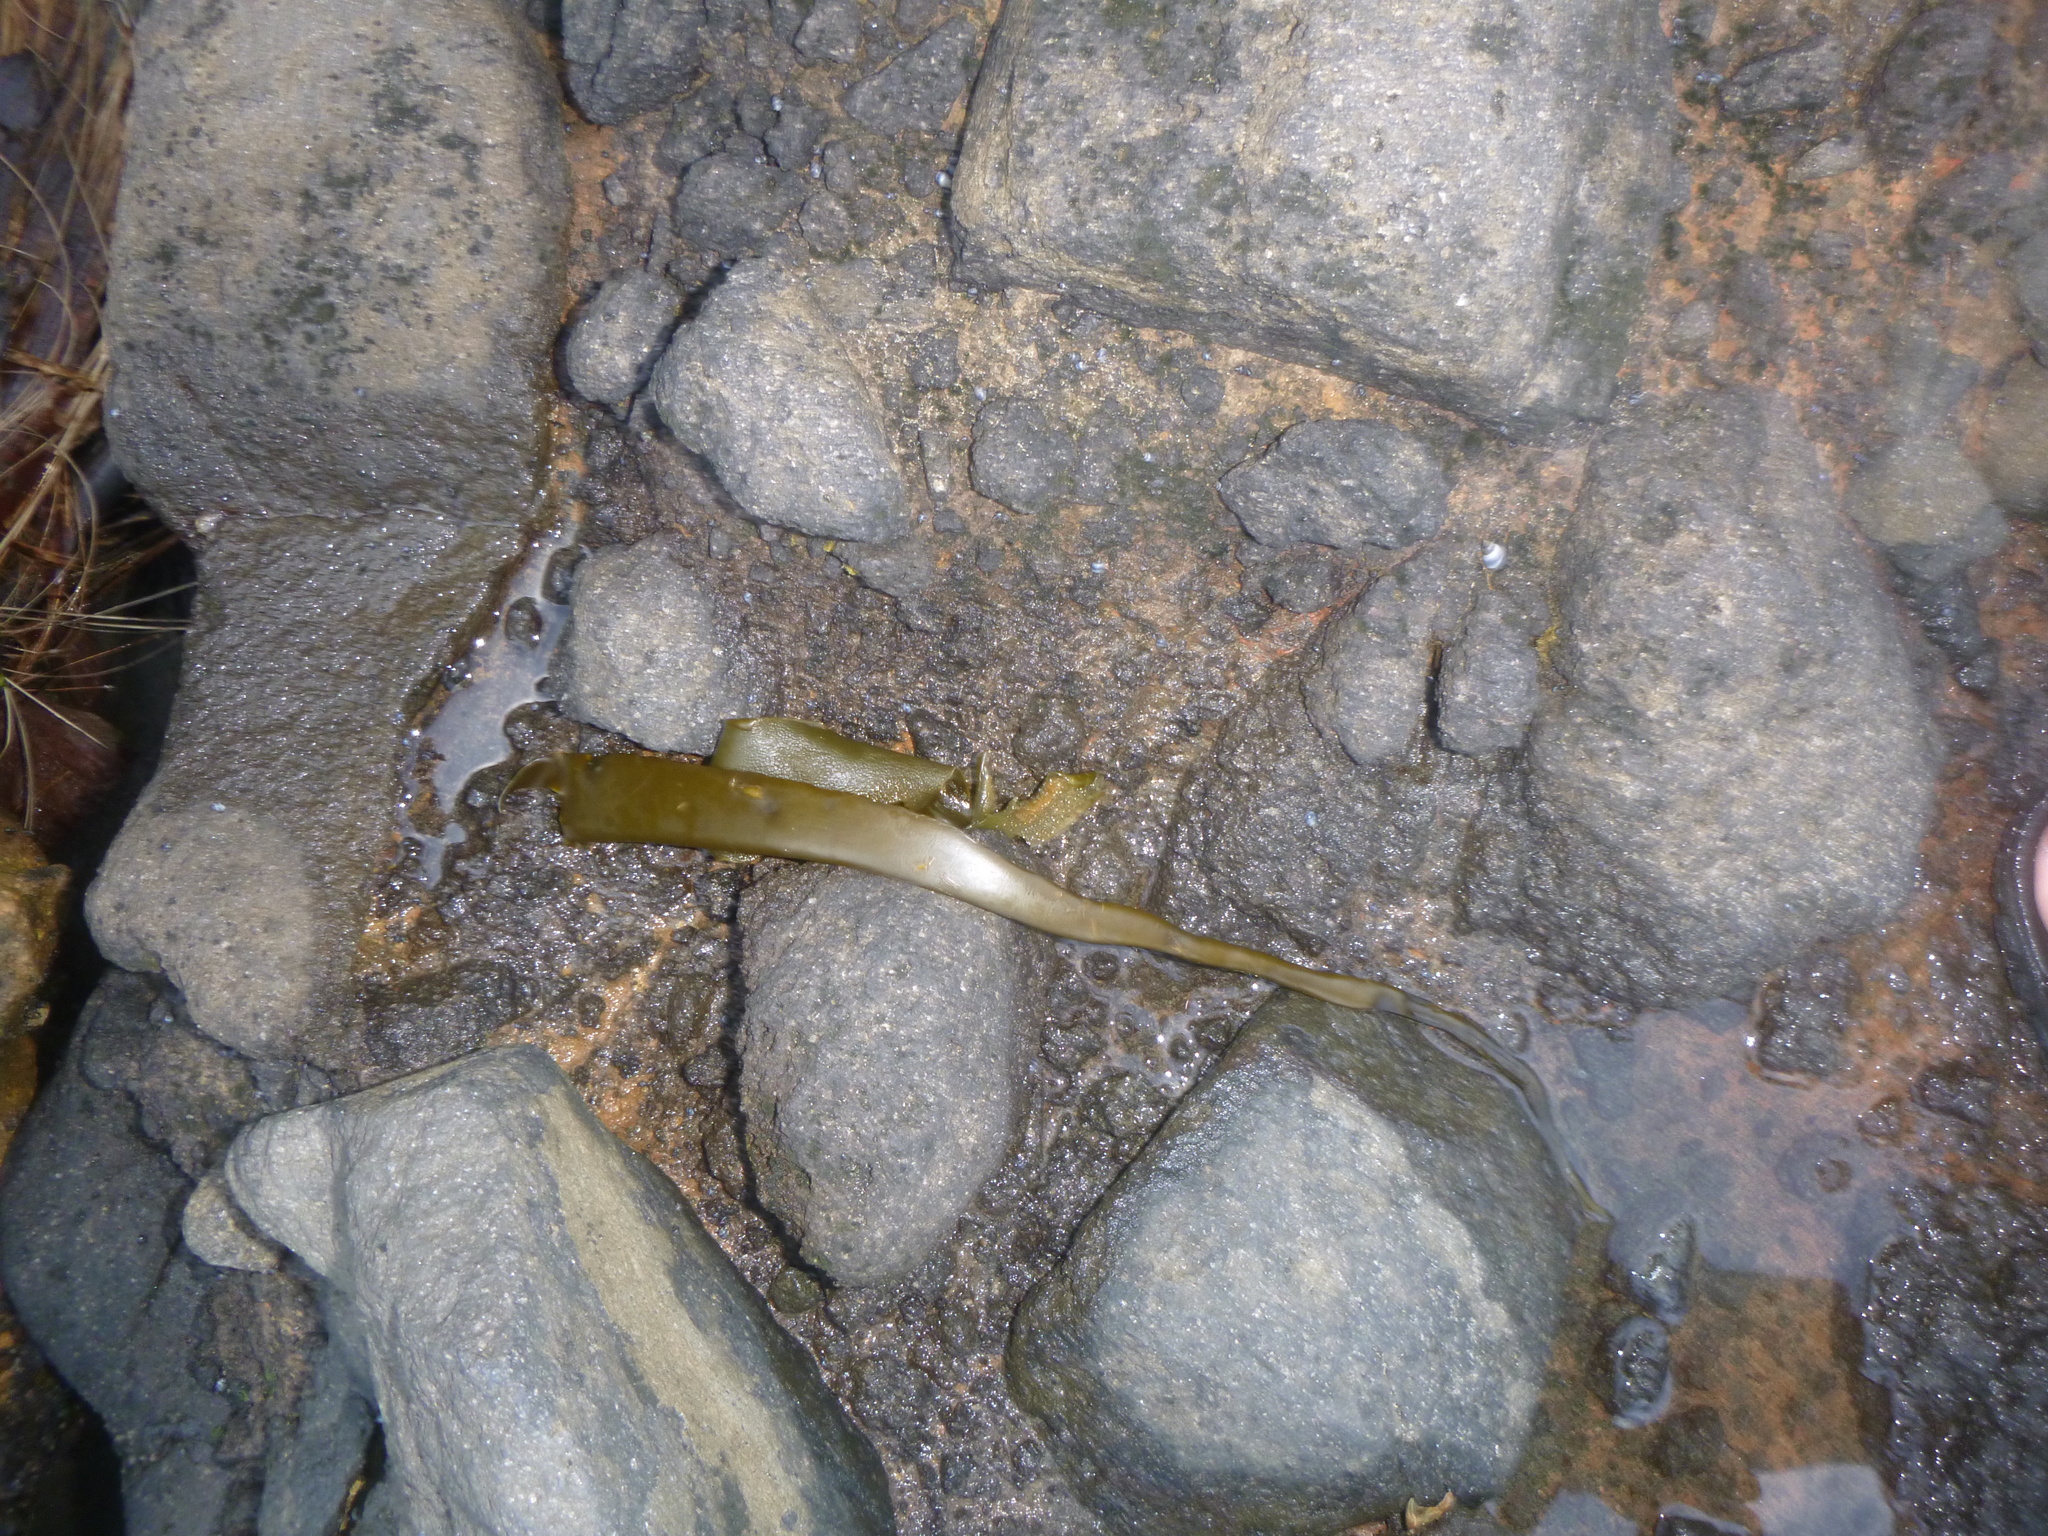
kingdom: Chromista
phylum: Ochrophyta
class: Phaeophyceae
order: Fucales
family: Durvillaeaceae
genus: Durvillaea
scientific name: Durvillaea antarctica
